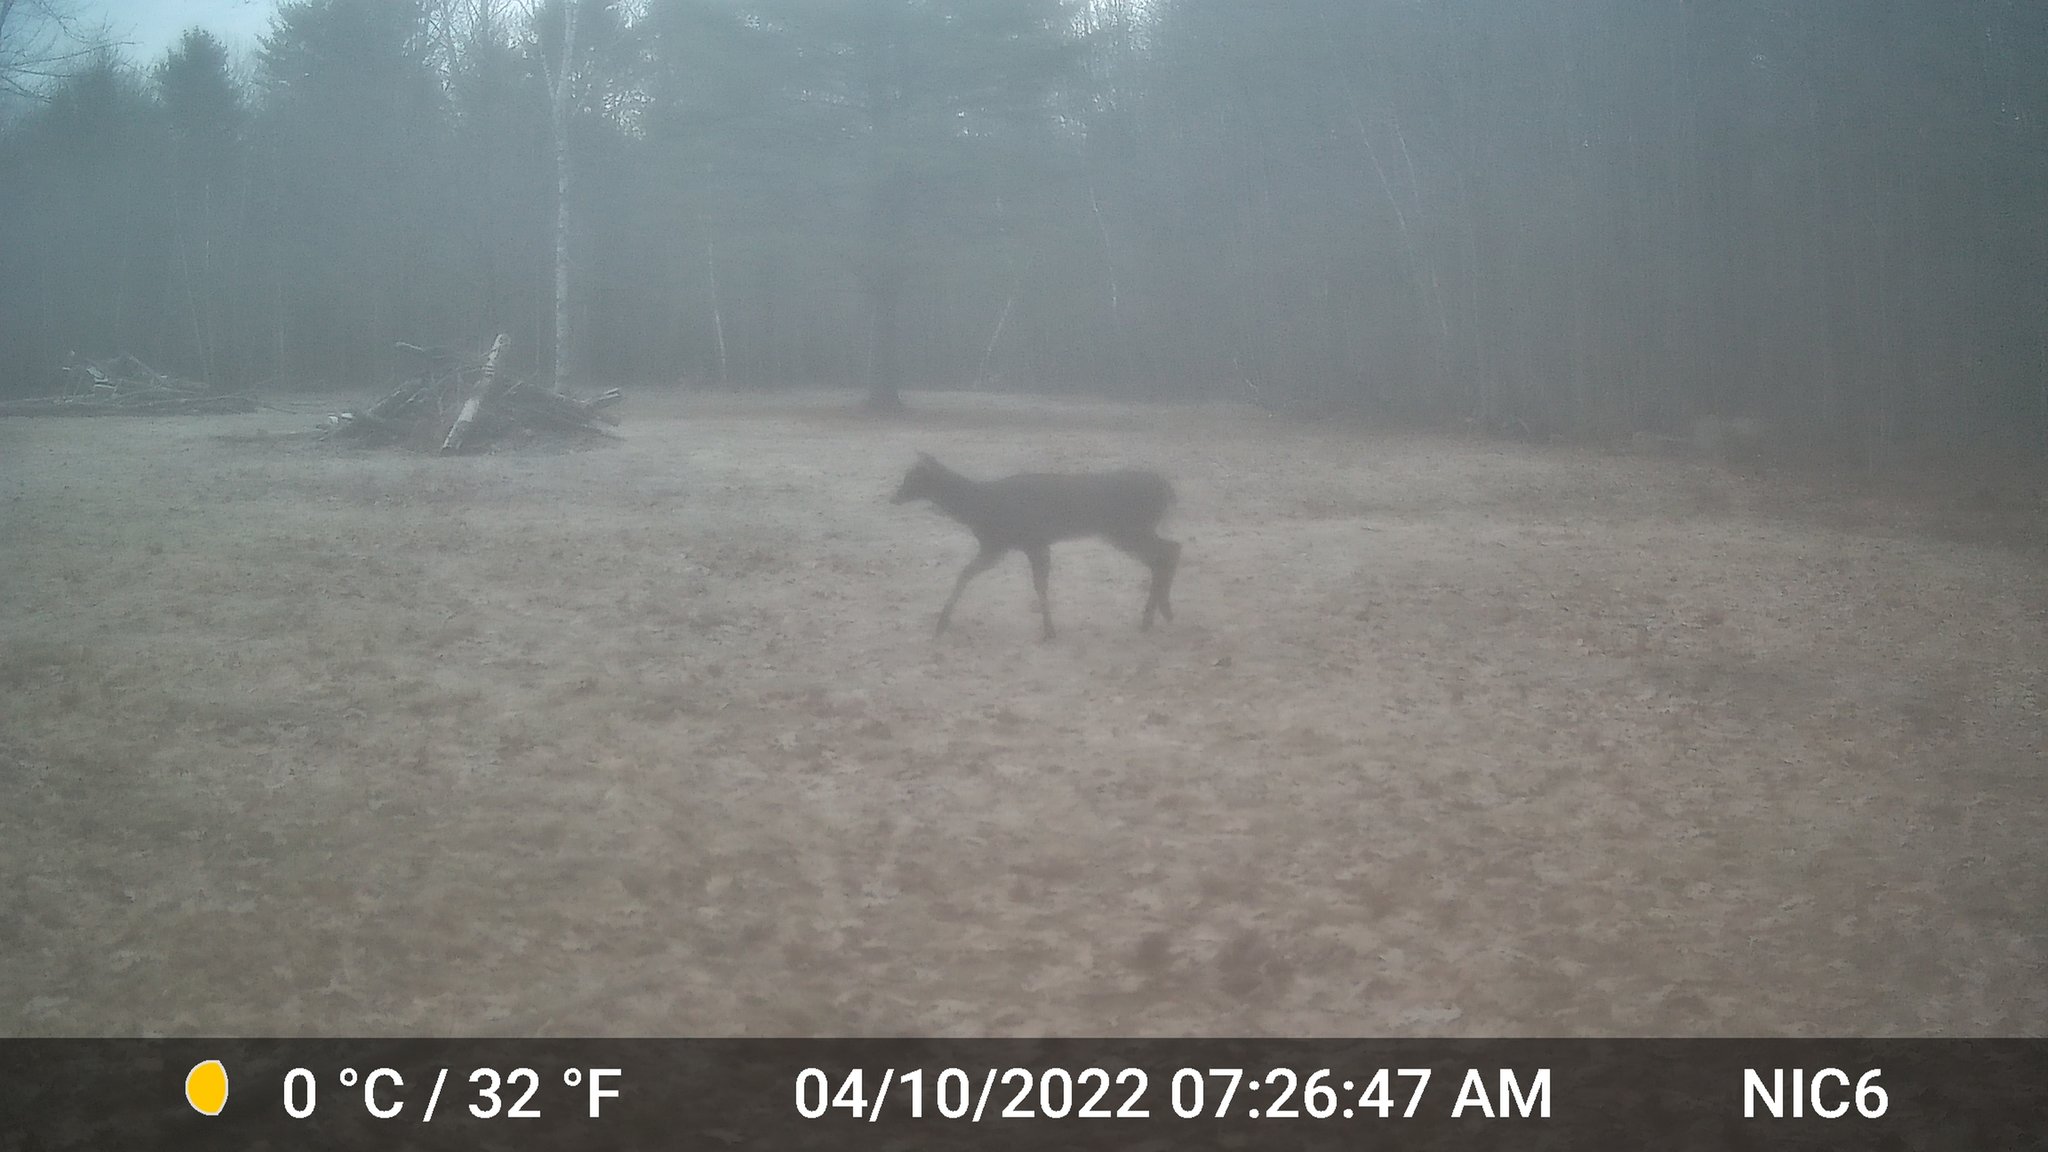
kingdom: Animalia
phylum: Chordata
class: Mammalia
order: Artiodactyla
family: Cervidae
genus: Odocoileus
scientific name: Odocoileus virginianus
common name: White-tailed deer
